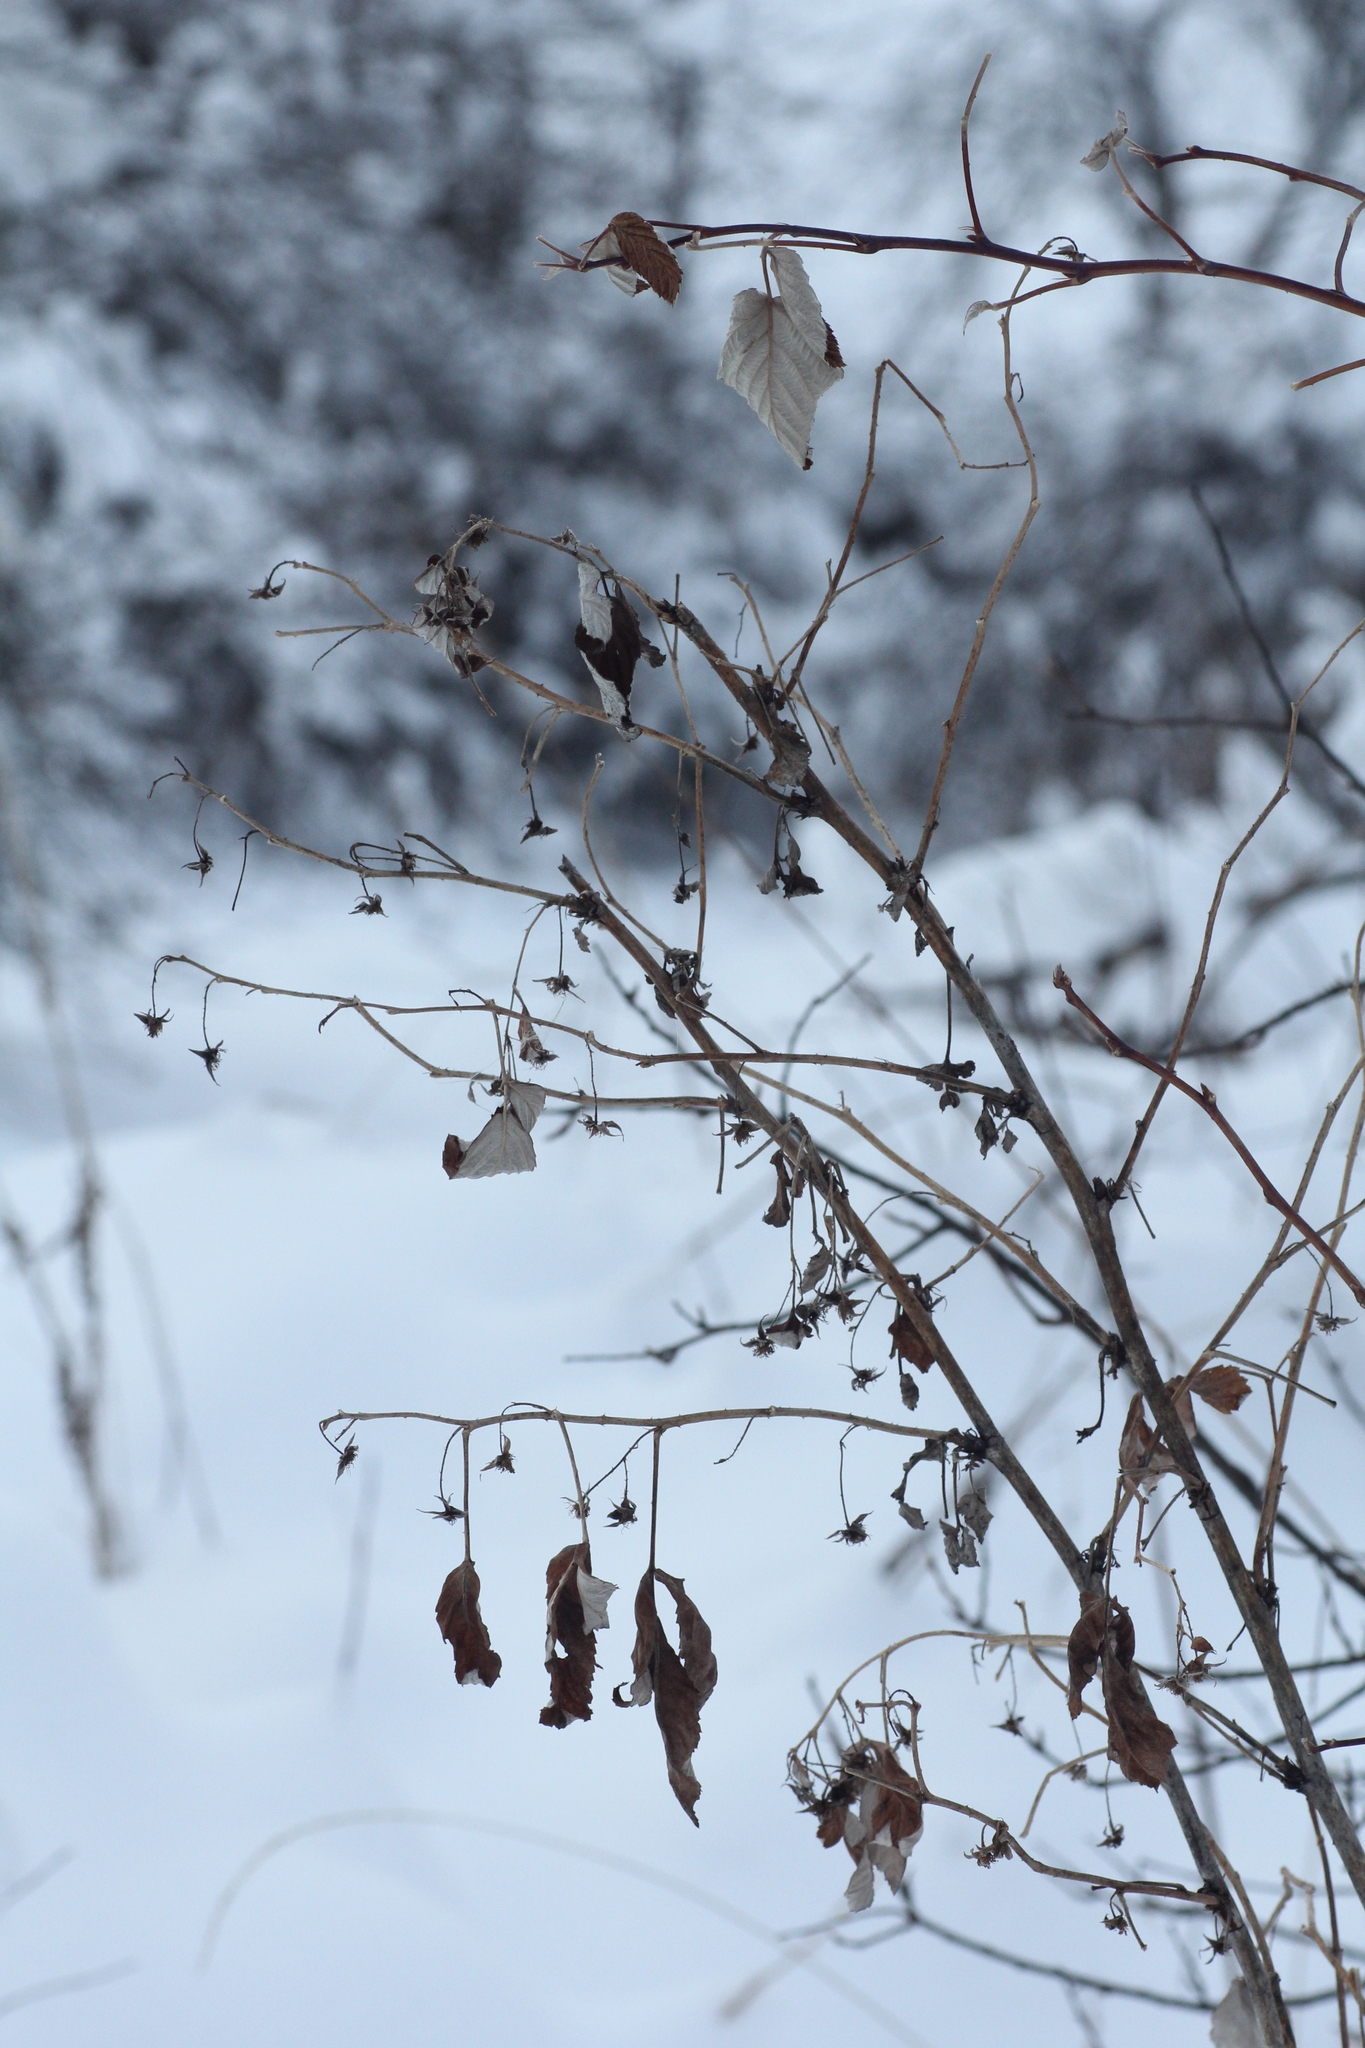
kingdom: Plantae
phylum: Tracheophyta
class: Magnoliopsida
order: Rosales
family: Rosaceae
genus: Rubus
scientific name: Rubus idaeus
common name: Raspberry
